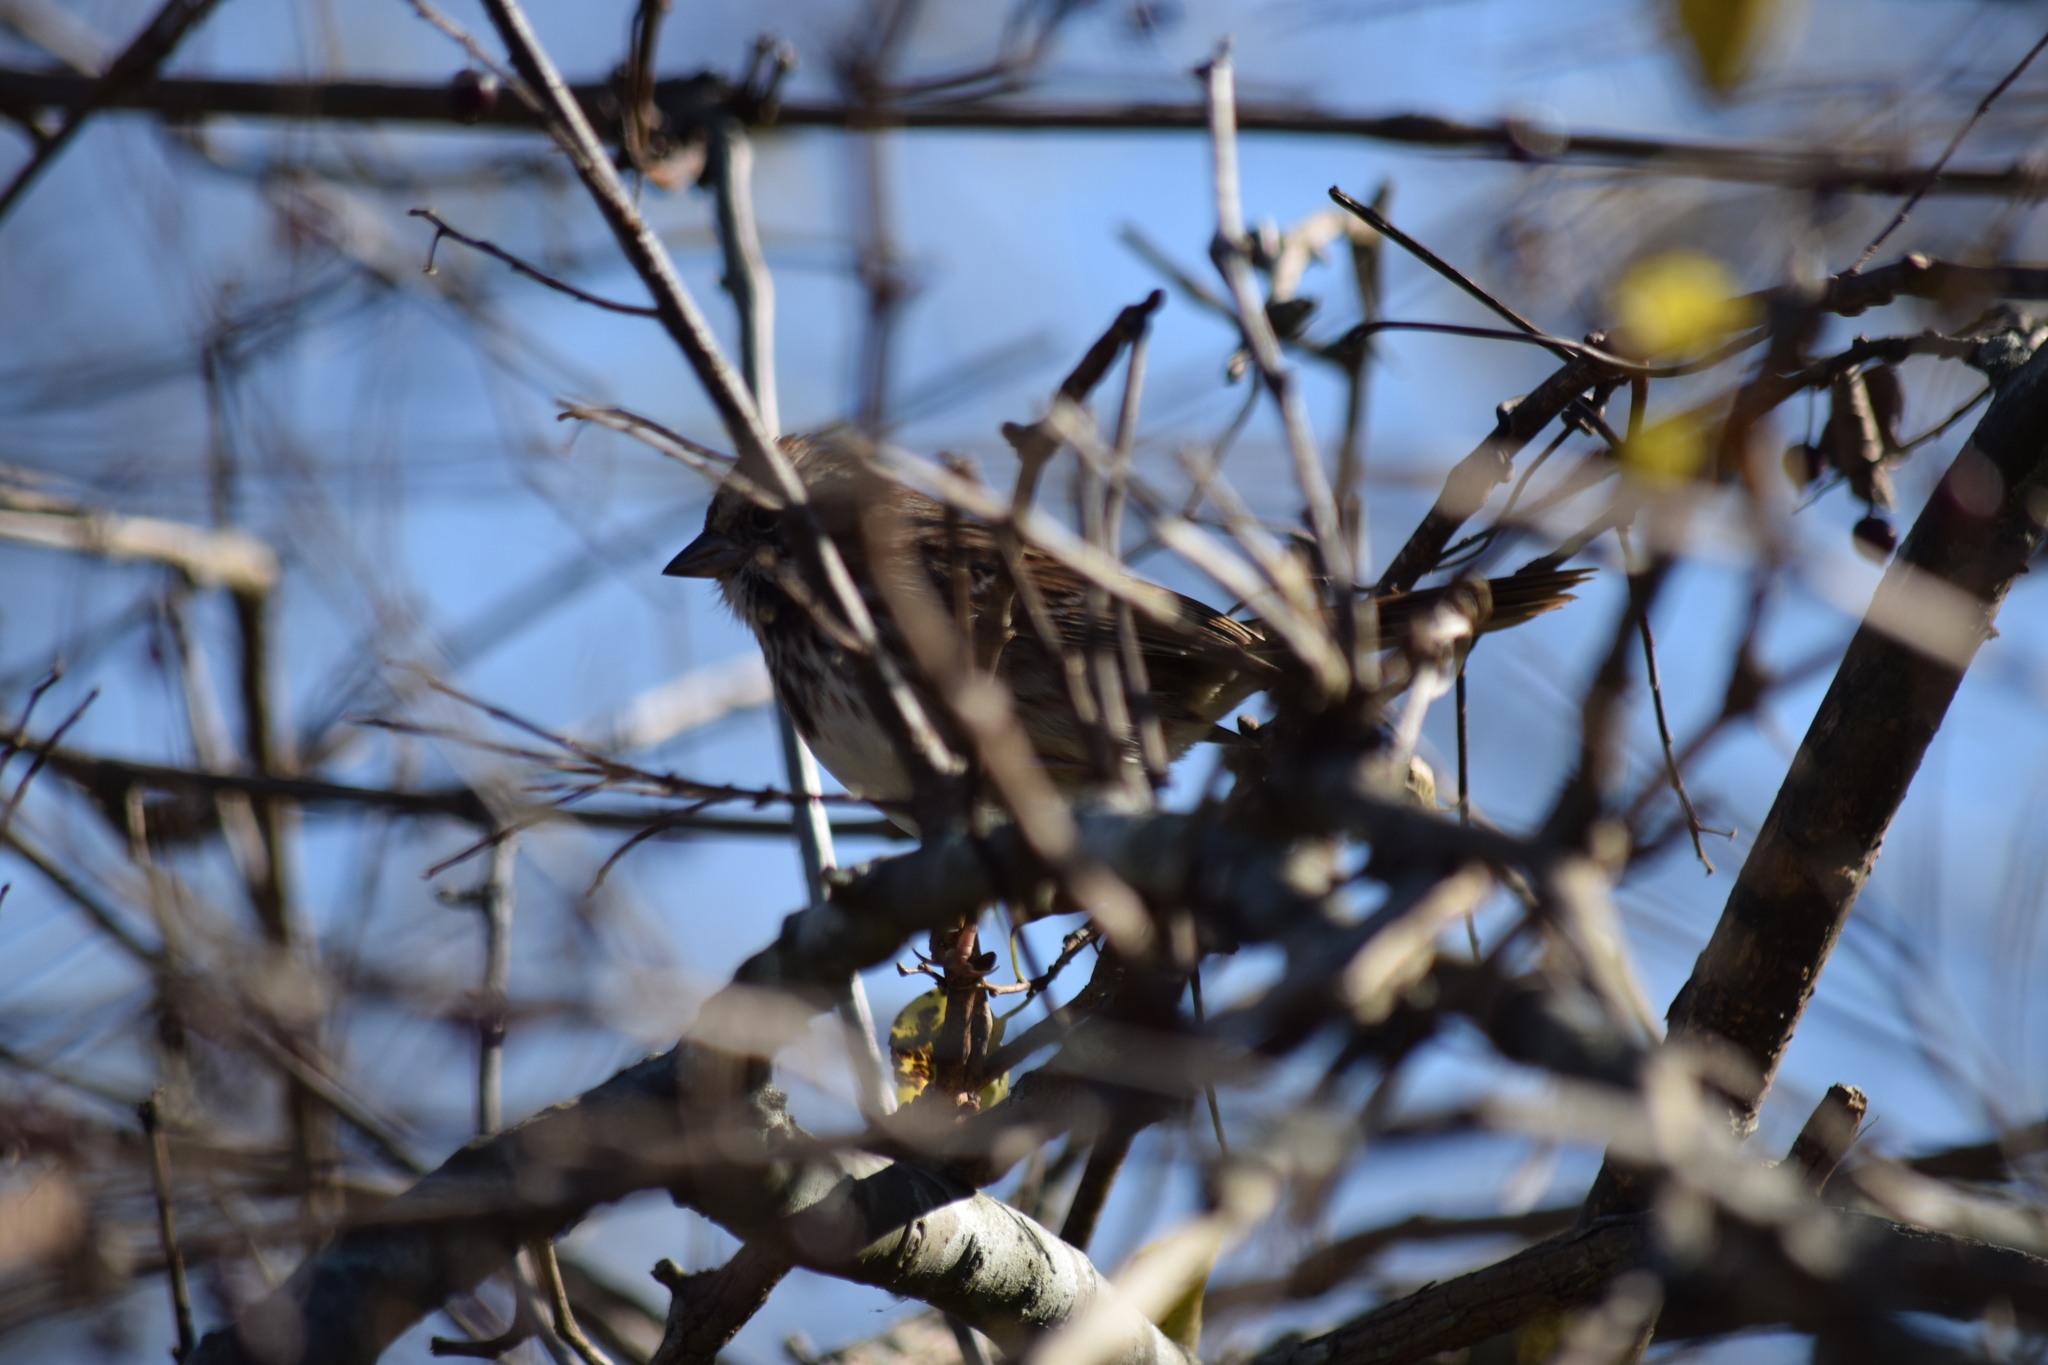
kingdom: Animalia
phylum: Chordata
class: Aves
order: Passeriformes
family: Passerellidae
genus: Melospiza
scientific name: Melospiza melodia
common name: Song sparrow
